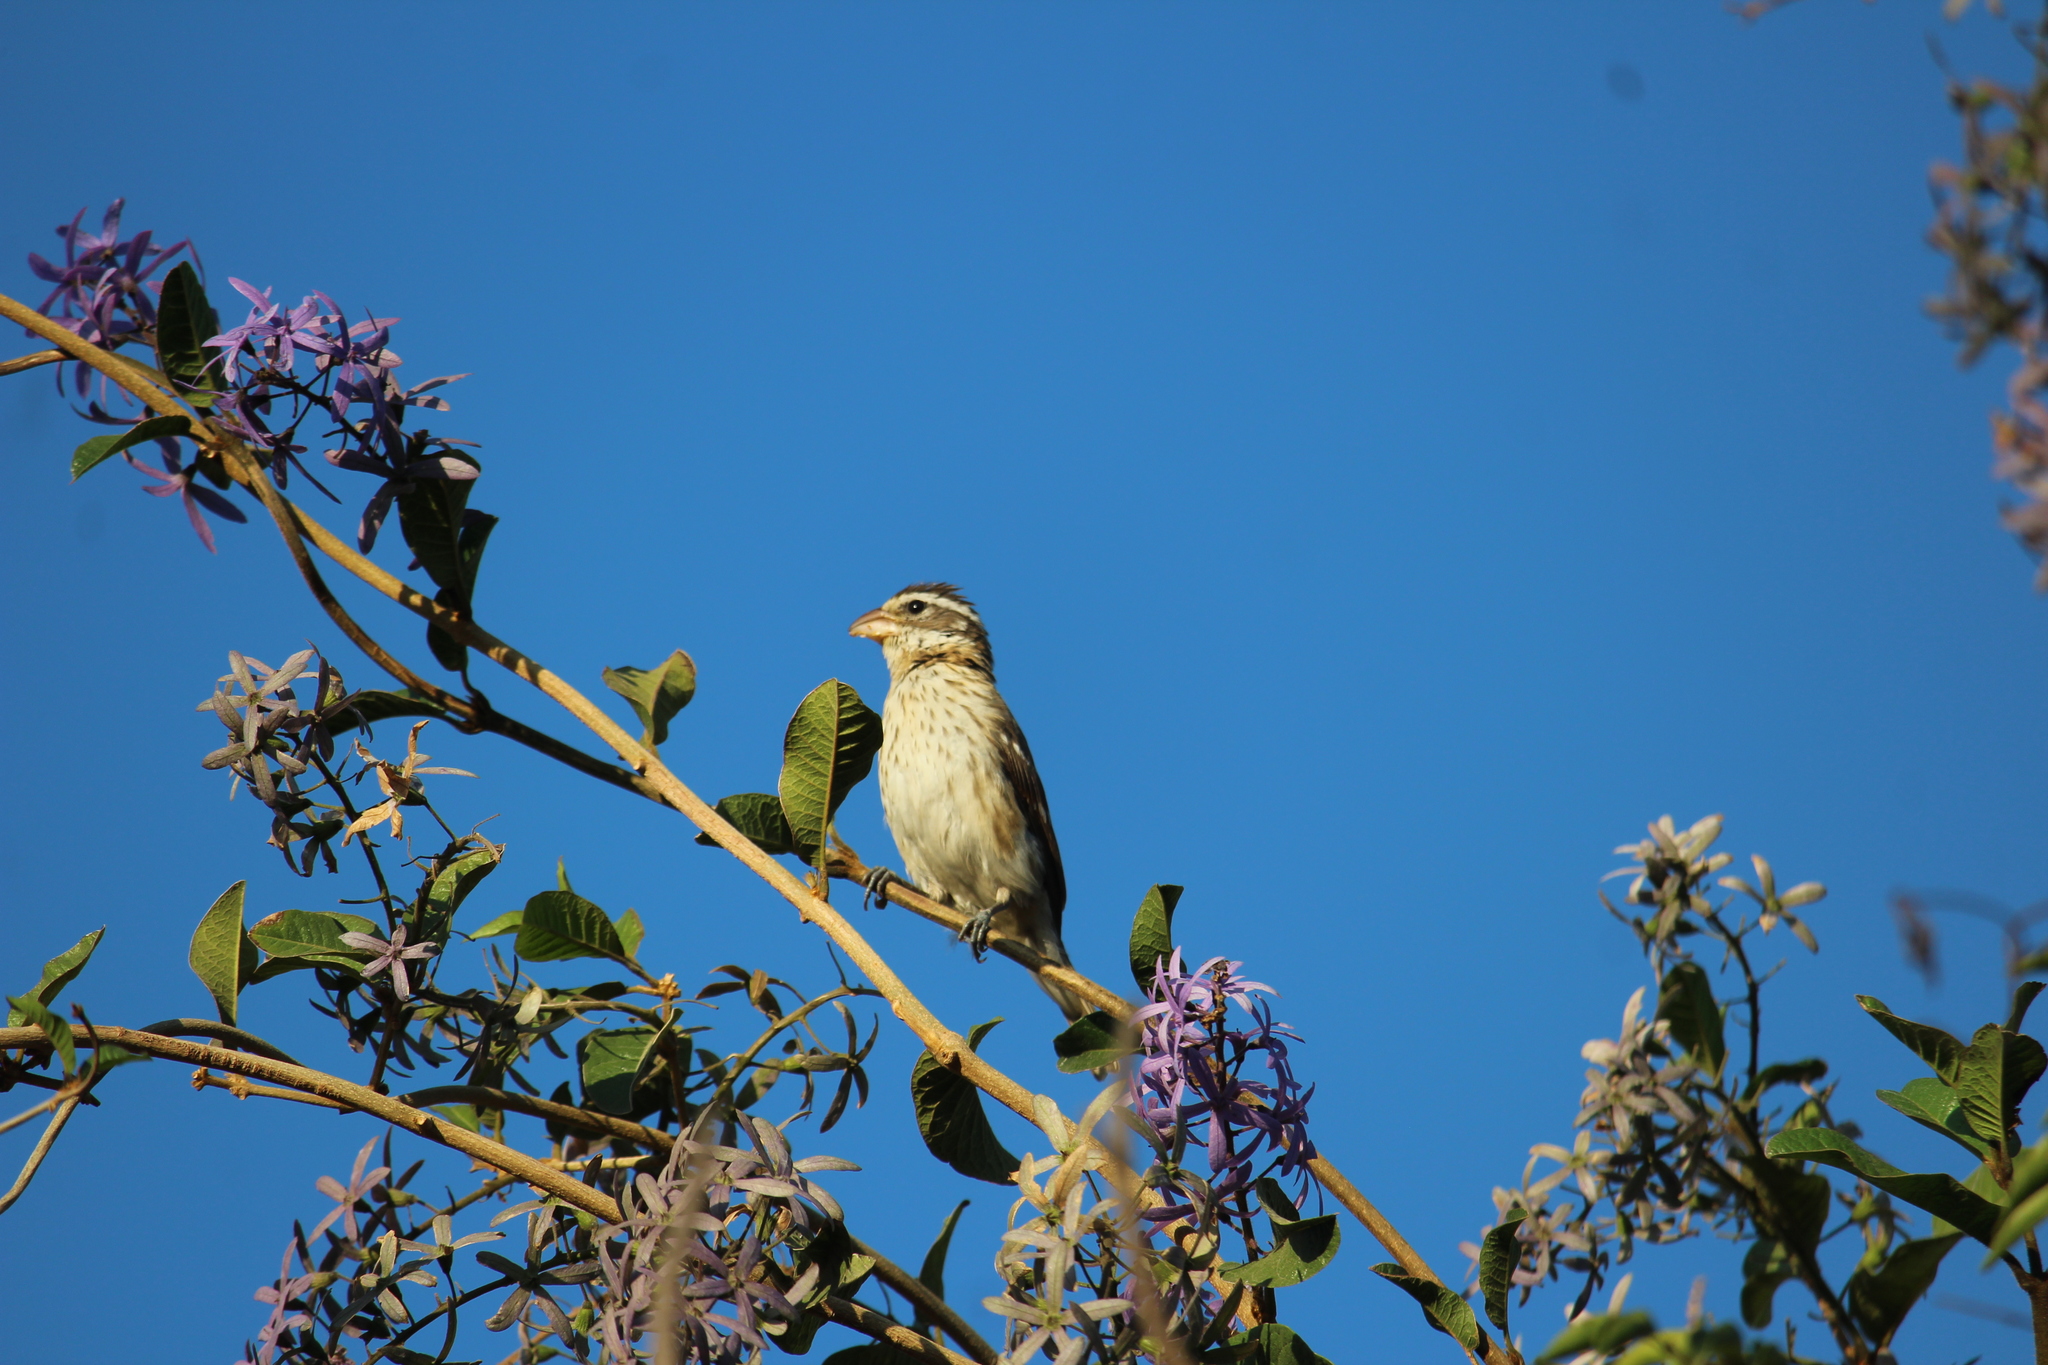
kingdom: Animalia
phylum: Chordata
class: Aves
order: Passeriformes
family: Cardinalidae
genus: Pheucticus
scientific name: Pheucticus ludovicianus
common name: Rose-breasted grosbeak
